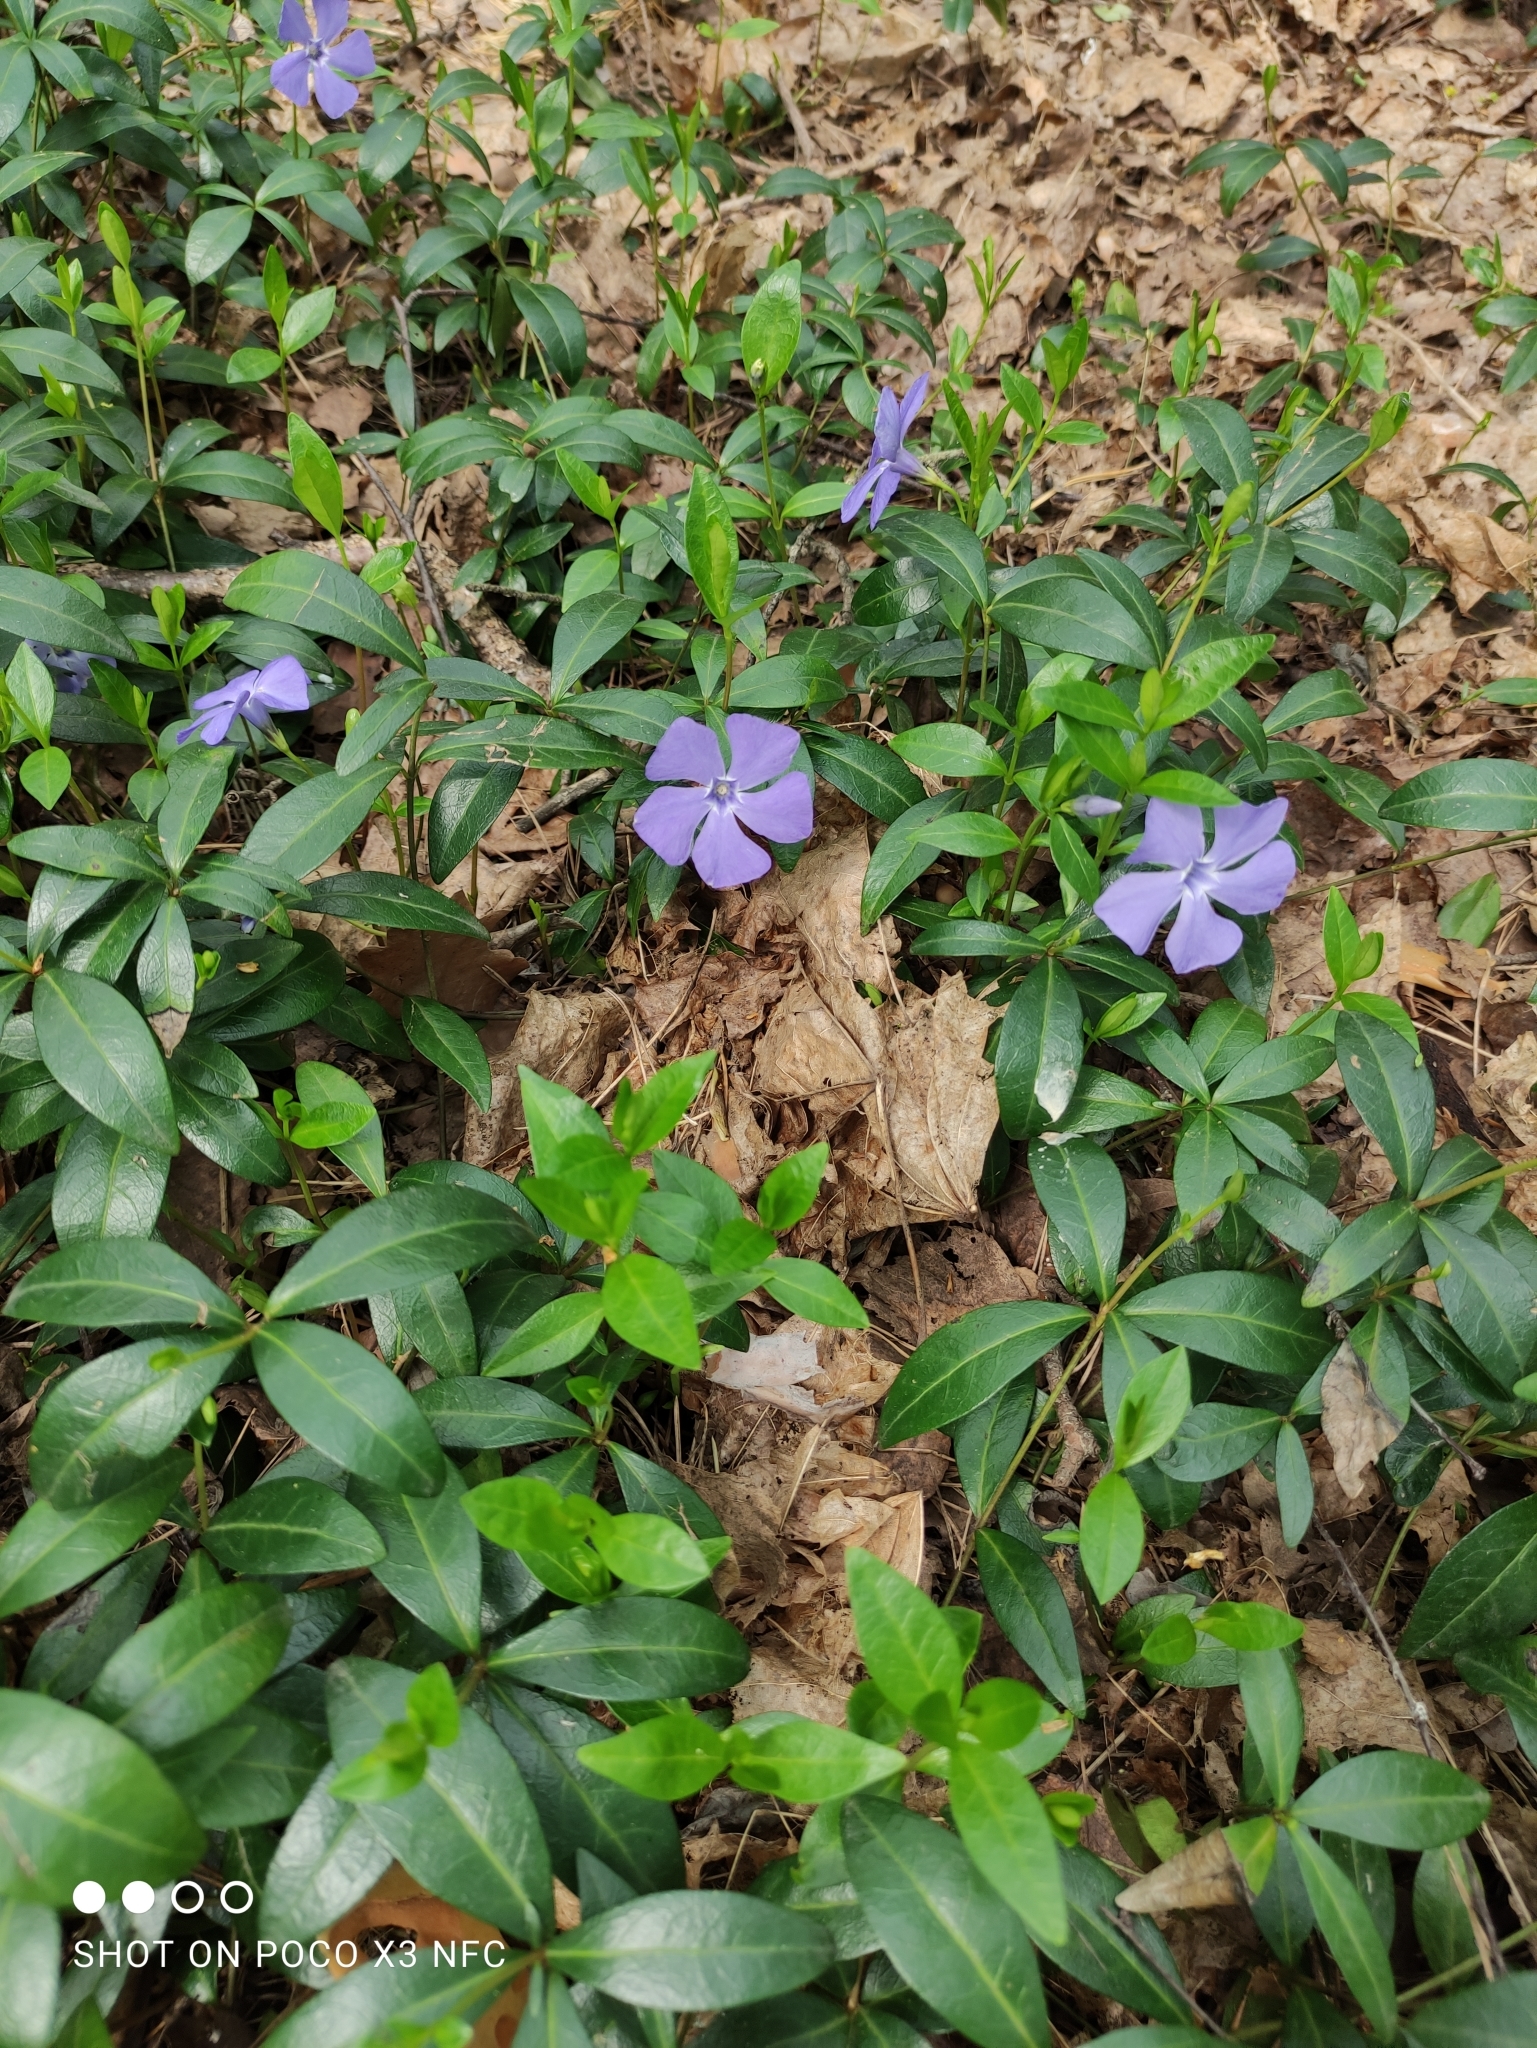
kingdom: Plantae
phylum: Tracheophyta
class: Magnoliopsida
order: Gentianales
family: Apocynaceae
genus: Vinca
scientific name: Vinca minor
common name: Lesser periwinkle
